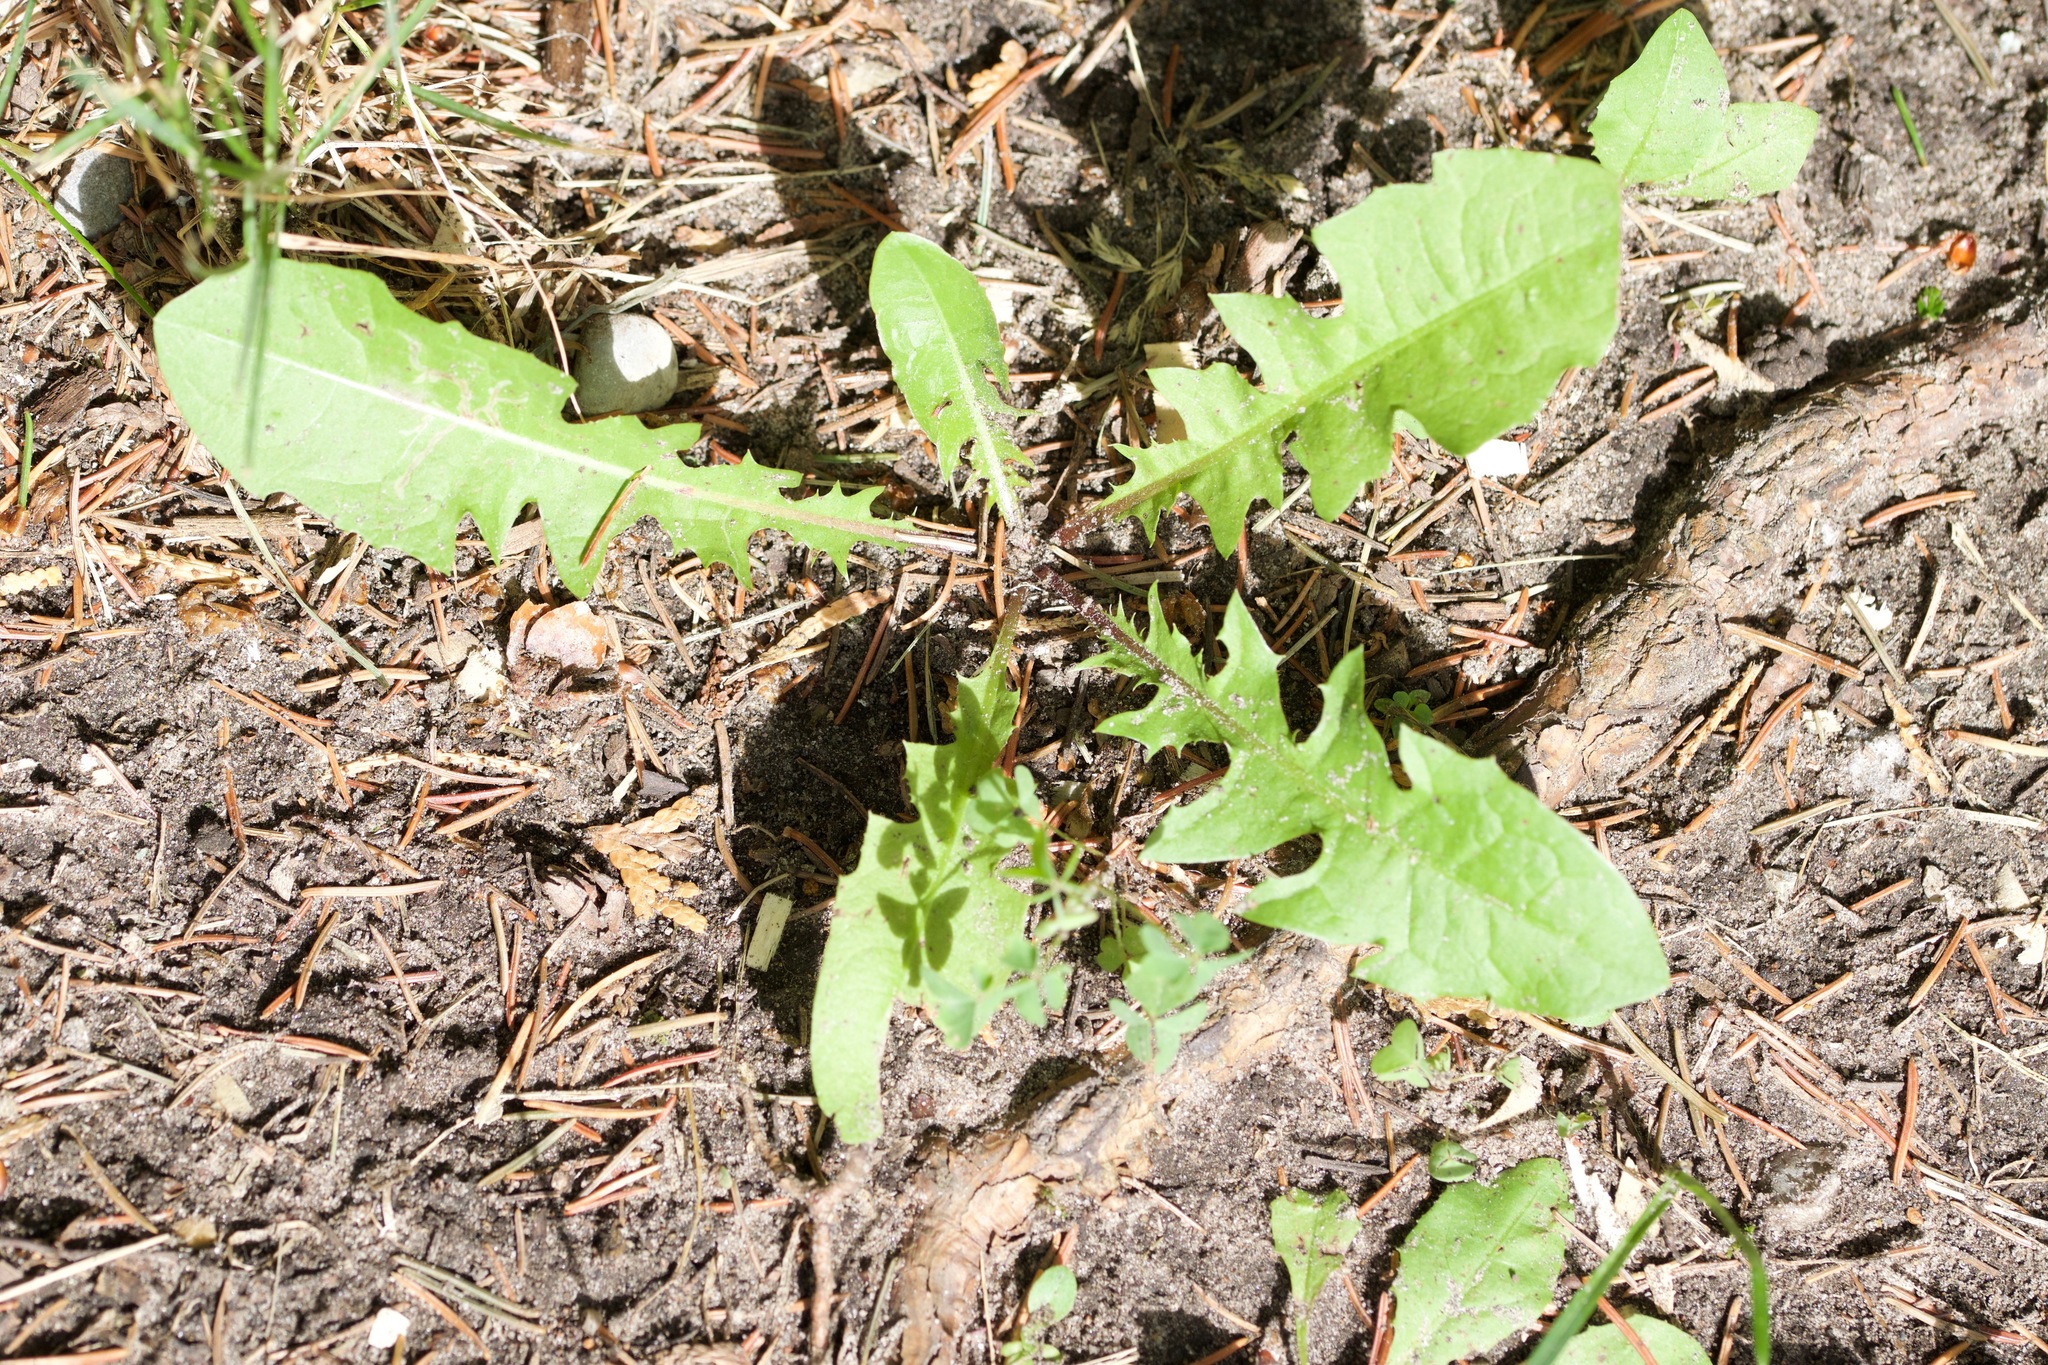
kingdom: Plantae
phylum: Tracheophyta
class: Magnoliopsida
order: Asterales
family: Asteraceae
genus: Taraxacum
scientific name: Taraxacum officinale
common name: Common dandelion
